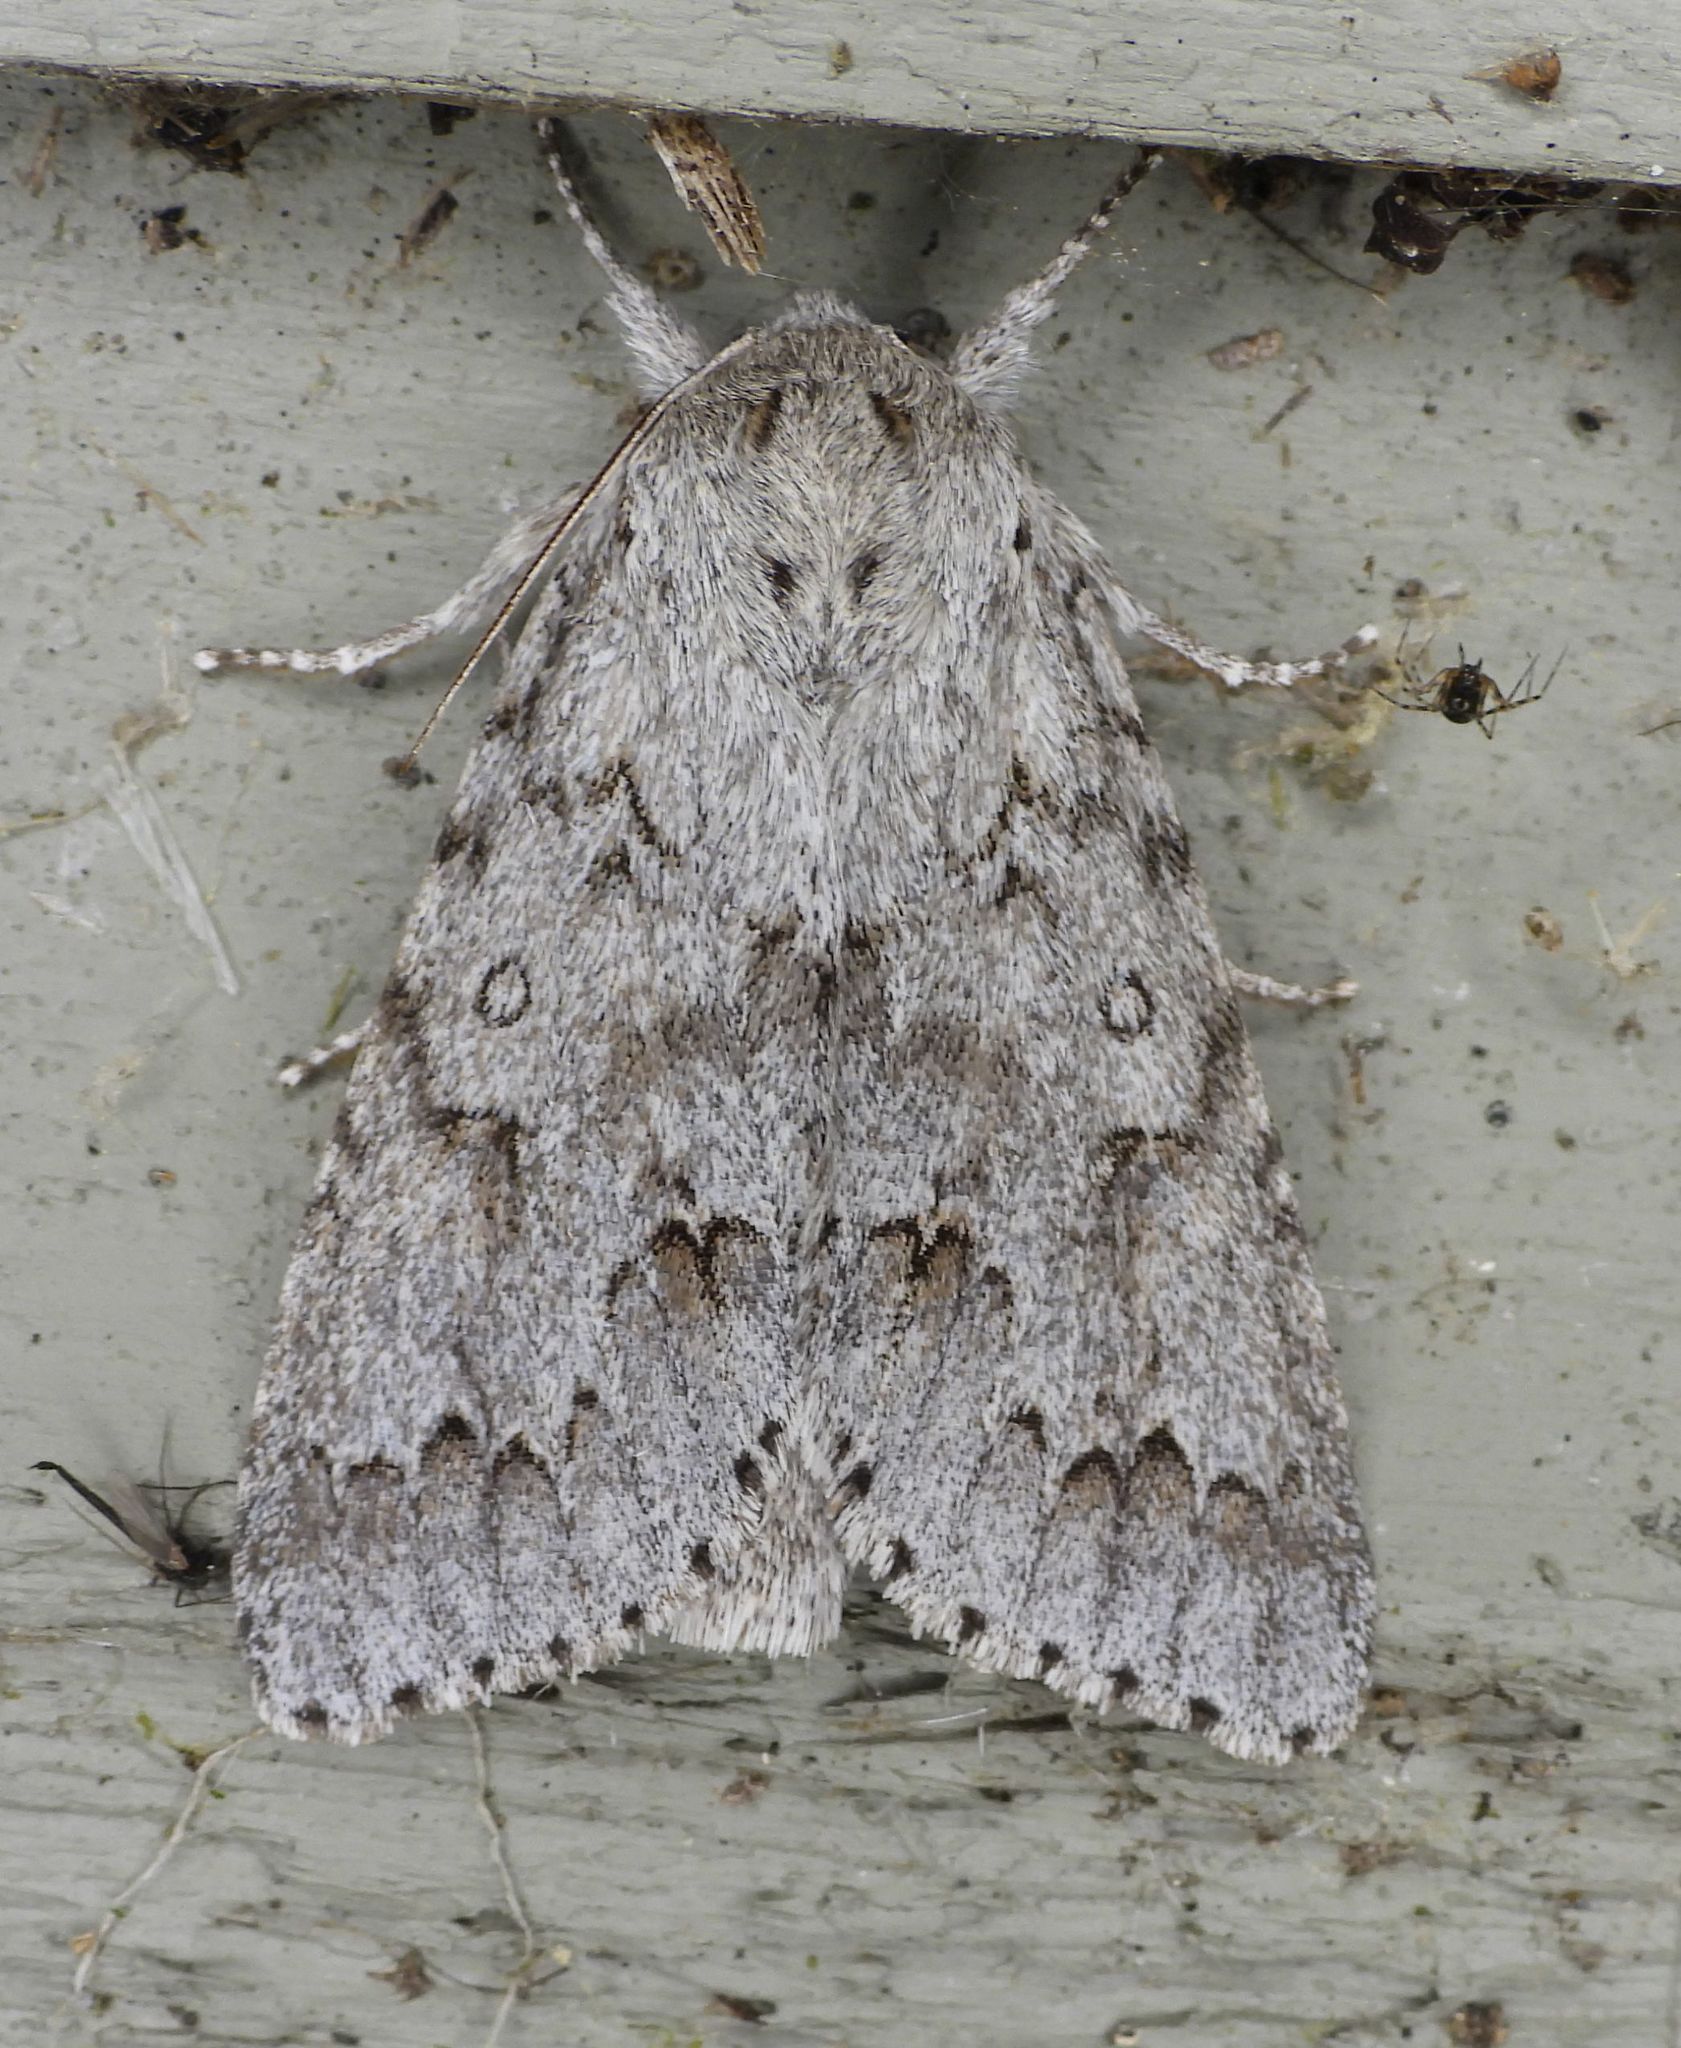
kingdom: Animalia
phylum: Arthropoda
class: Insecta
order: Lepidoptera
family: Noctuidae
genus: Acronicta
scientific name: Acronicta insita
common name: Large gray dagger
